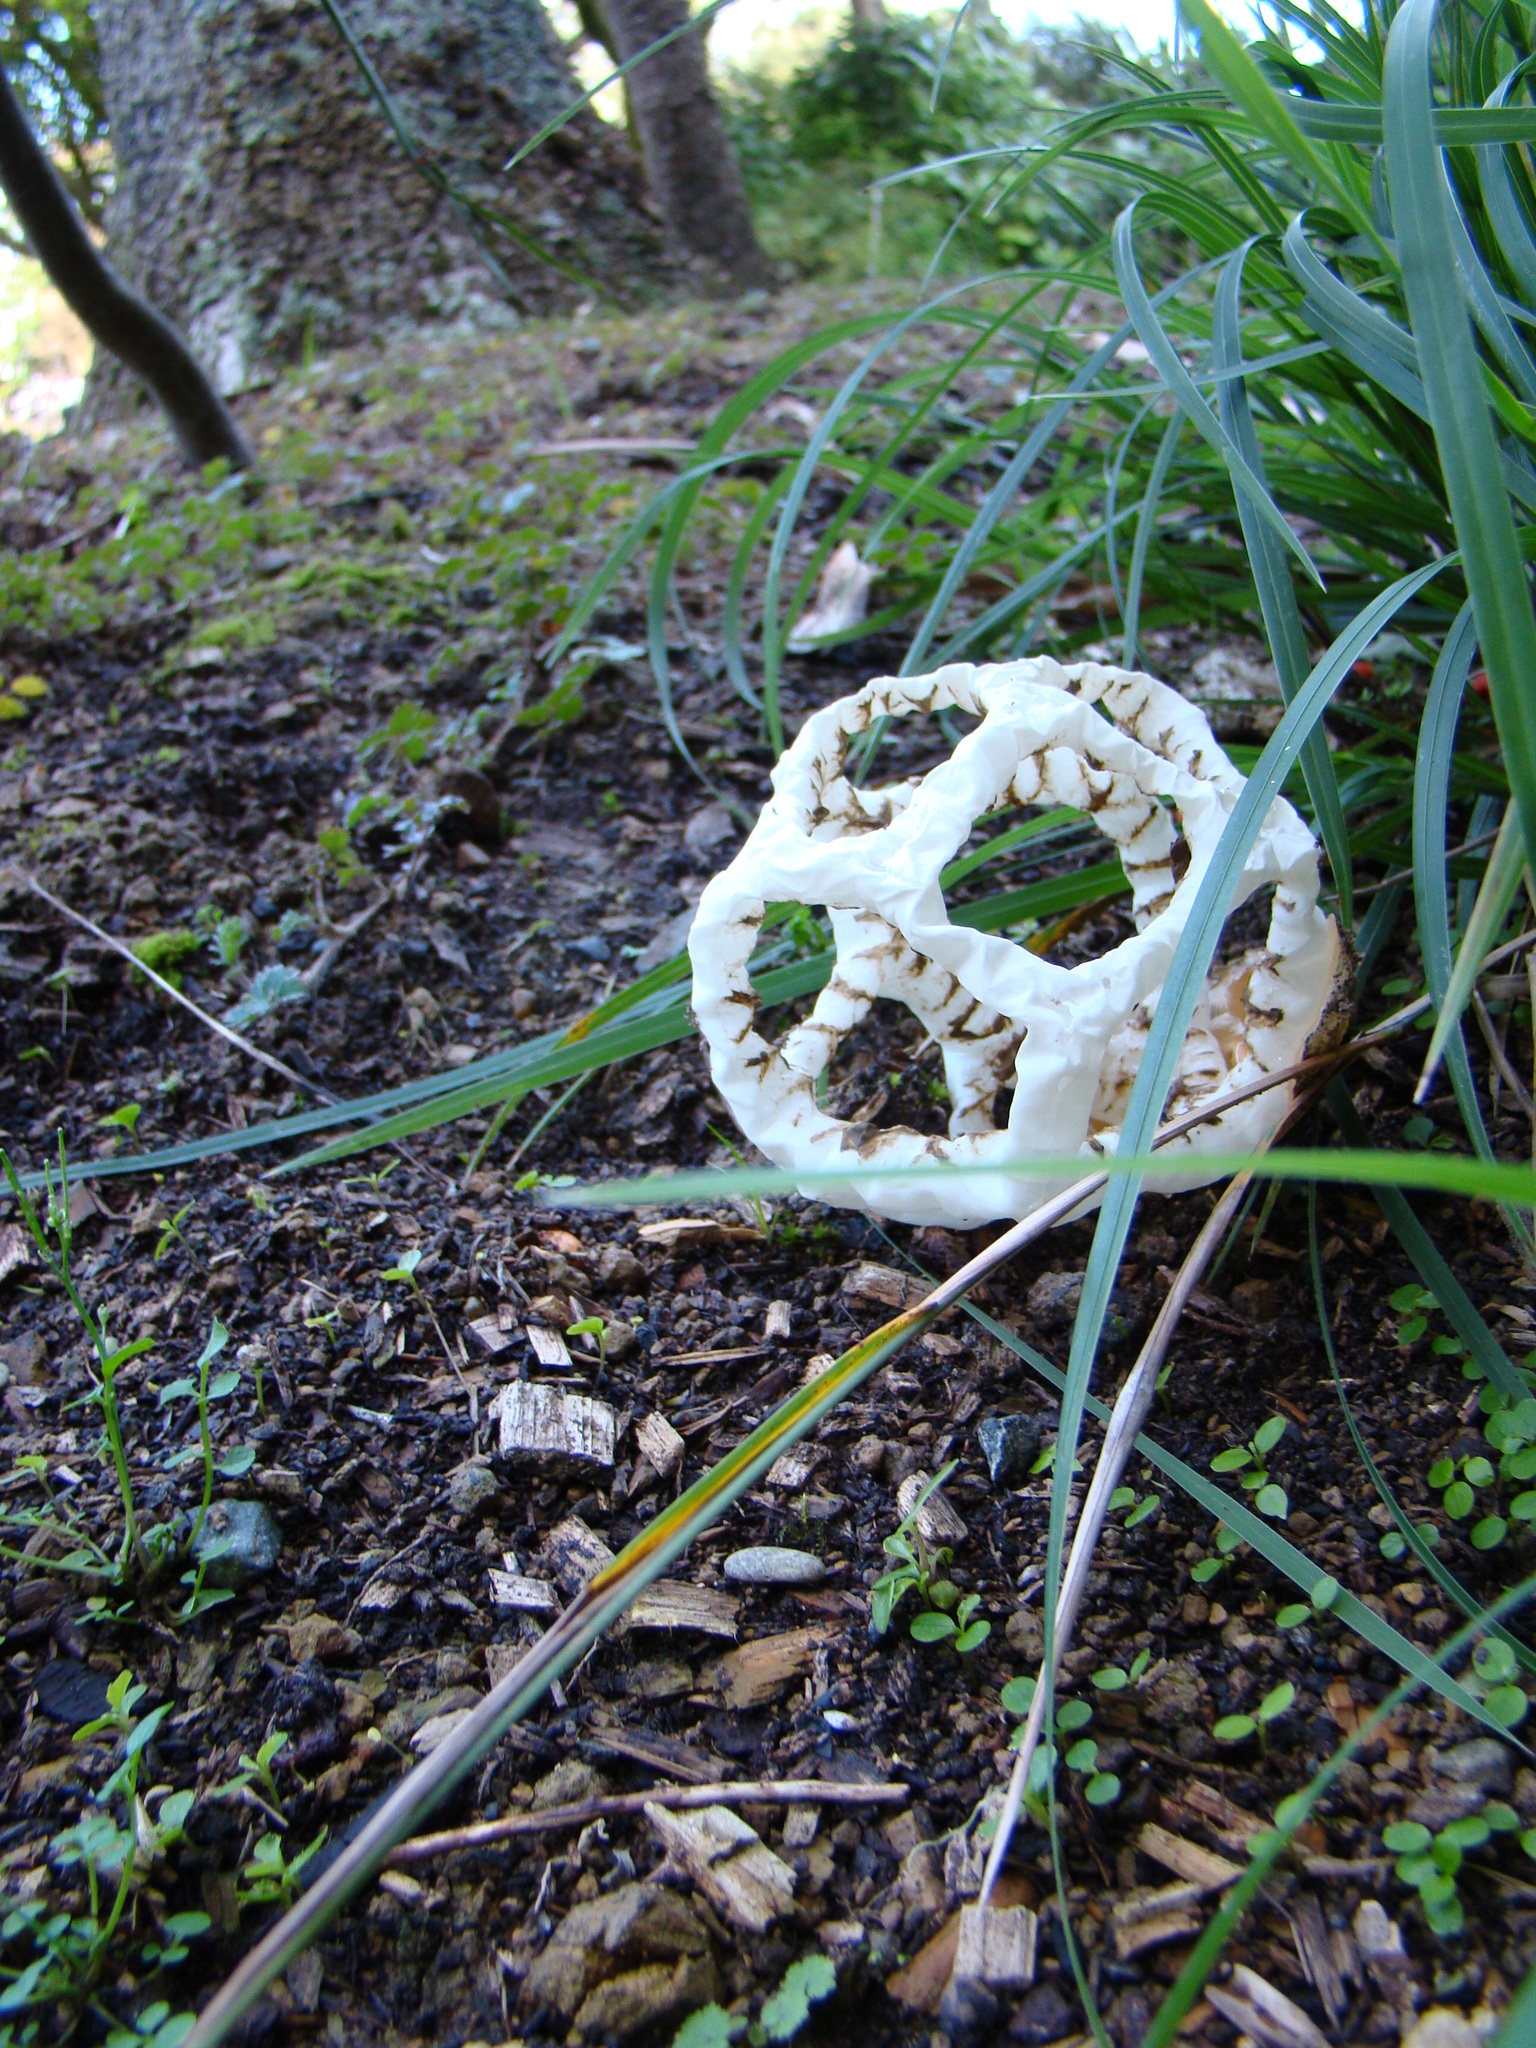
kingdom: Fungi
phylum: Basidiomycota
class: Agaricomycetes
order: Phallales
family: Phallaceae
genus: Ileodictyon
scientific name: Ileodictyon cibarium
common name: Basket fungus
